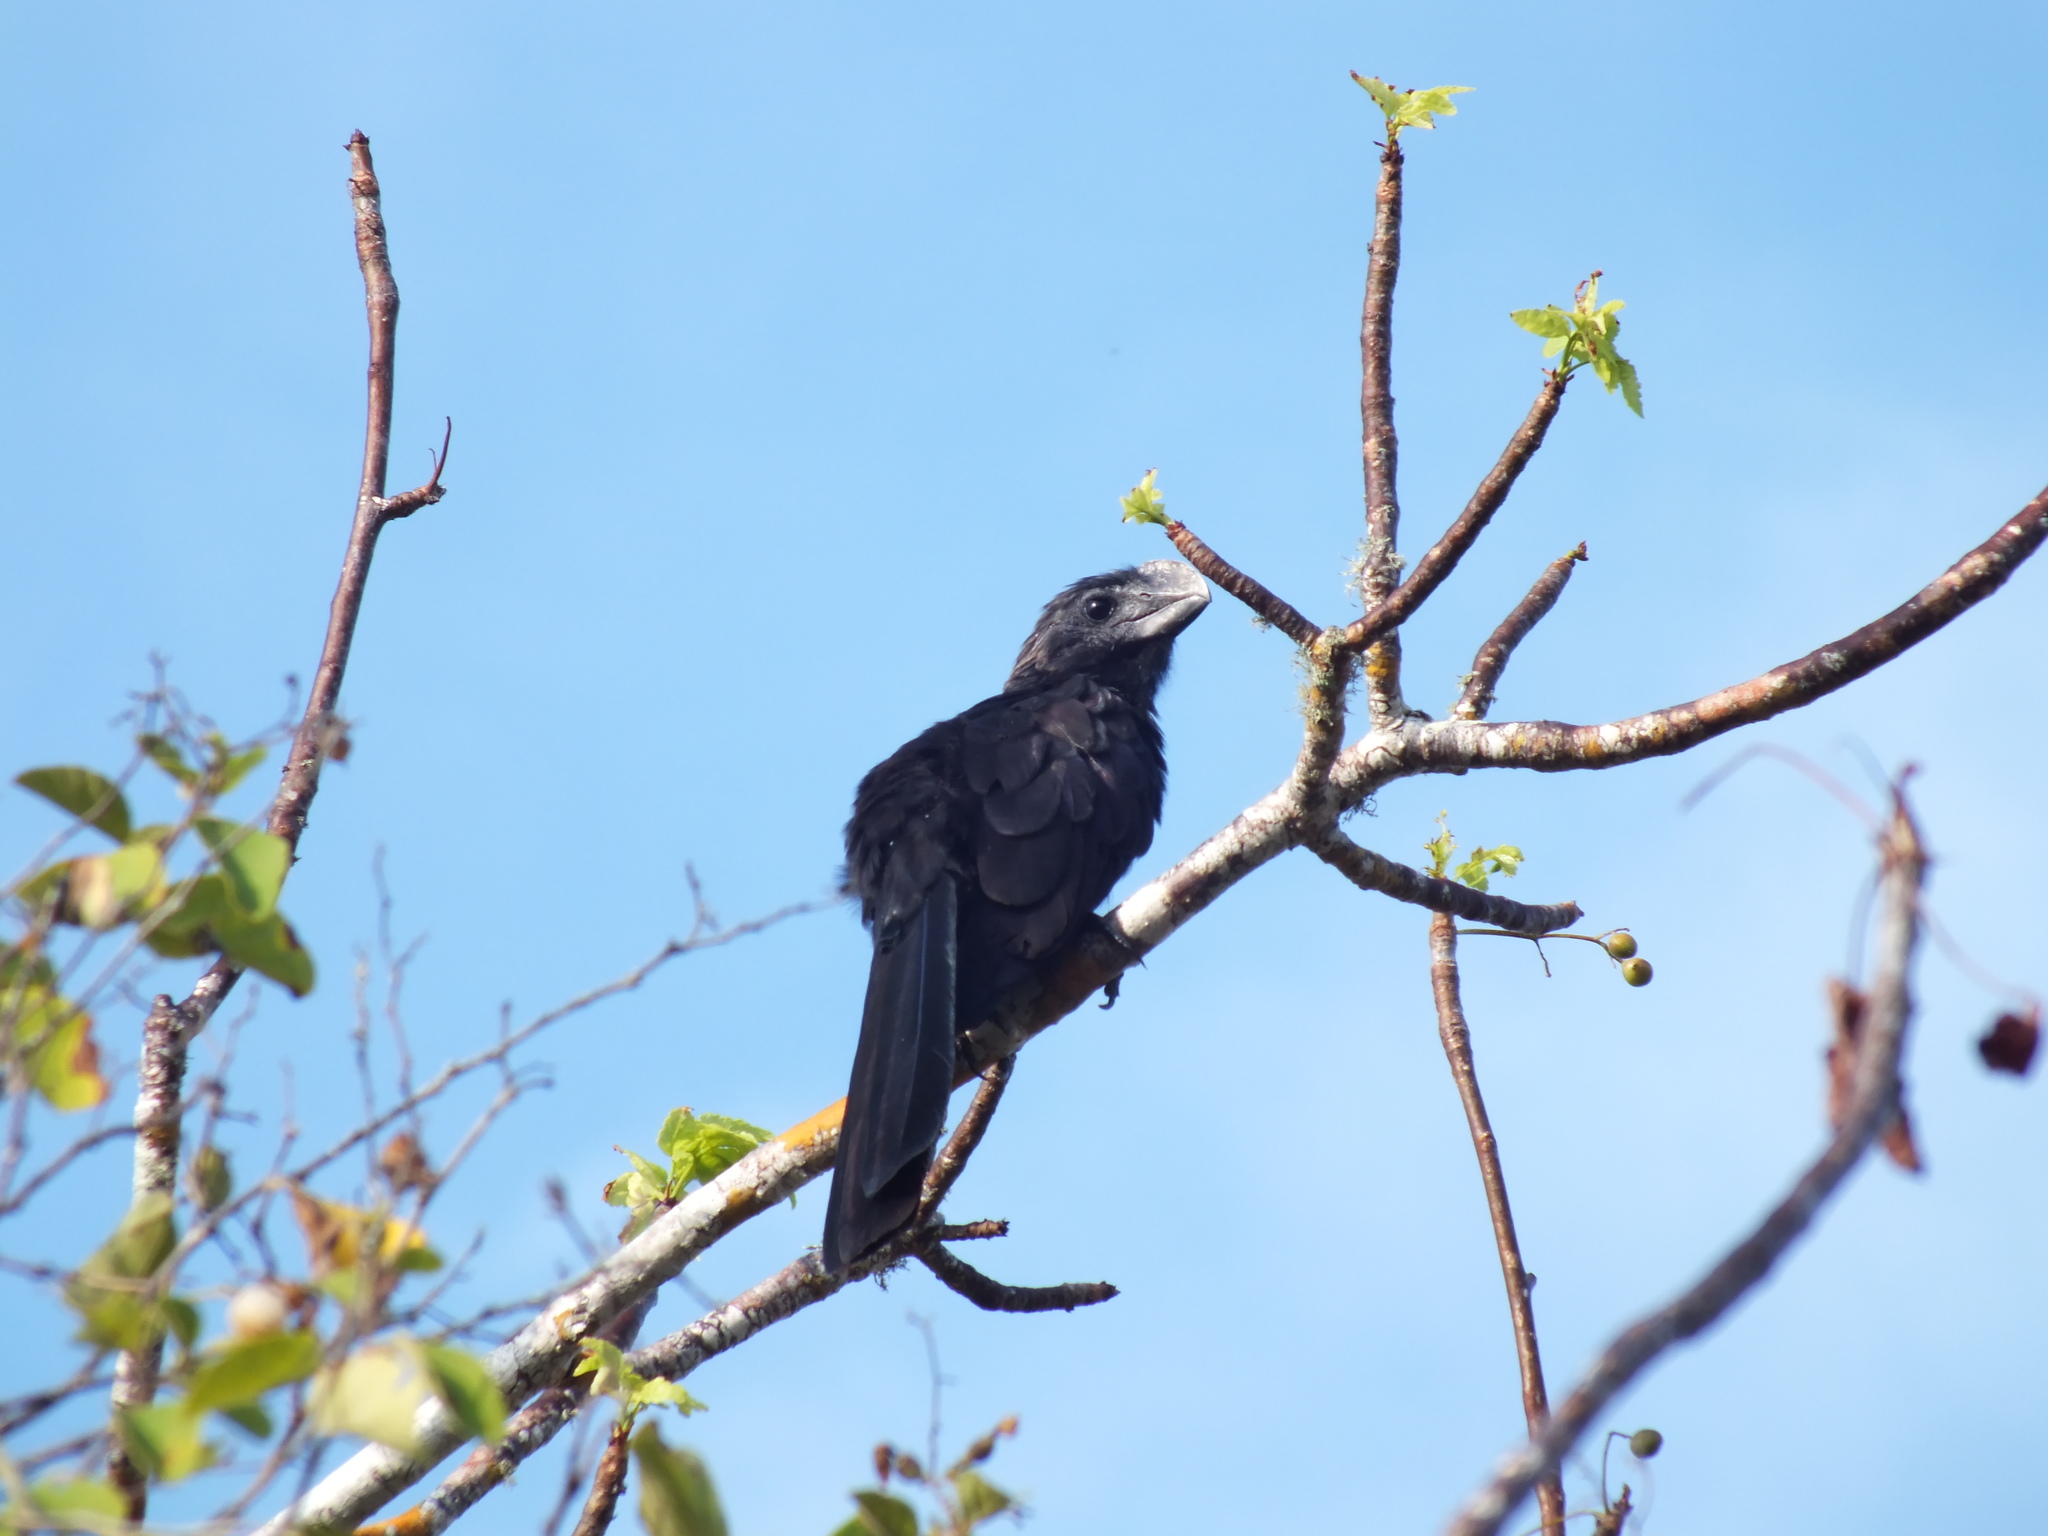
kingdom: Animalia
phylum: Chordata
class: Aves
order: Cuculiformes
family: Cuculidae
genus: Crotophaga
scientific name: Crotophaga ani
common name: Smooth-billed ani
